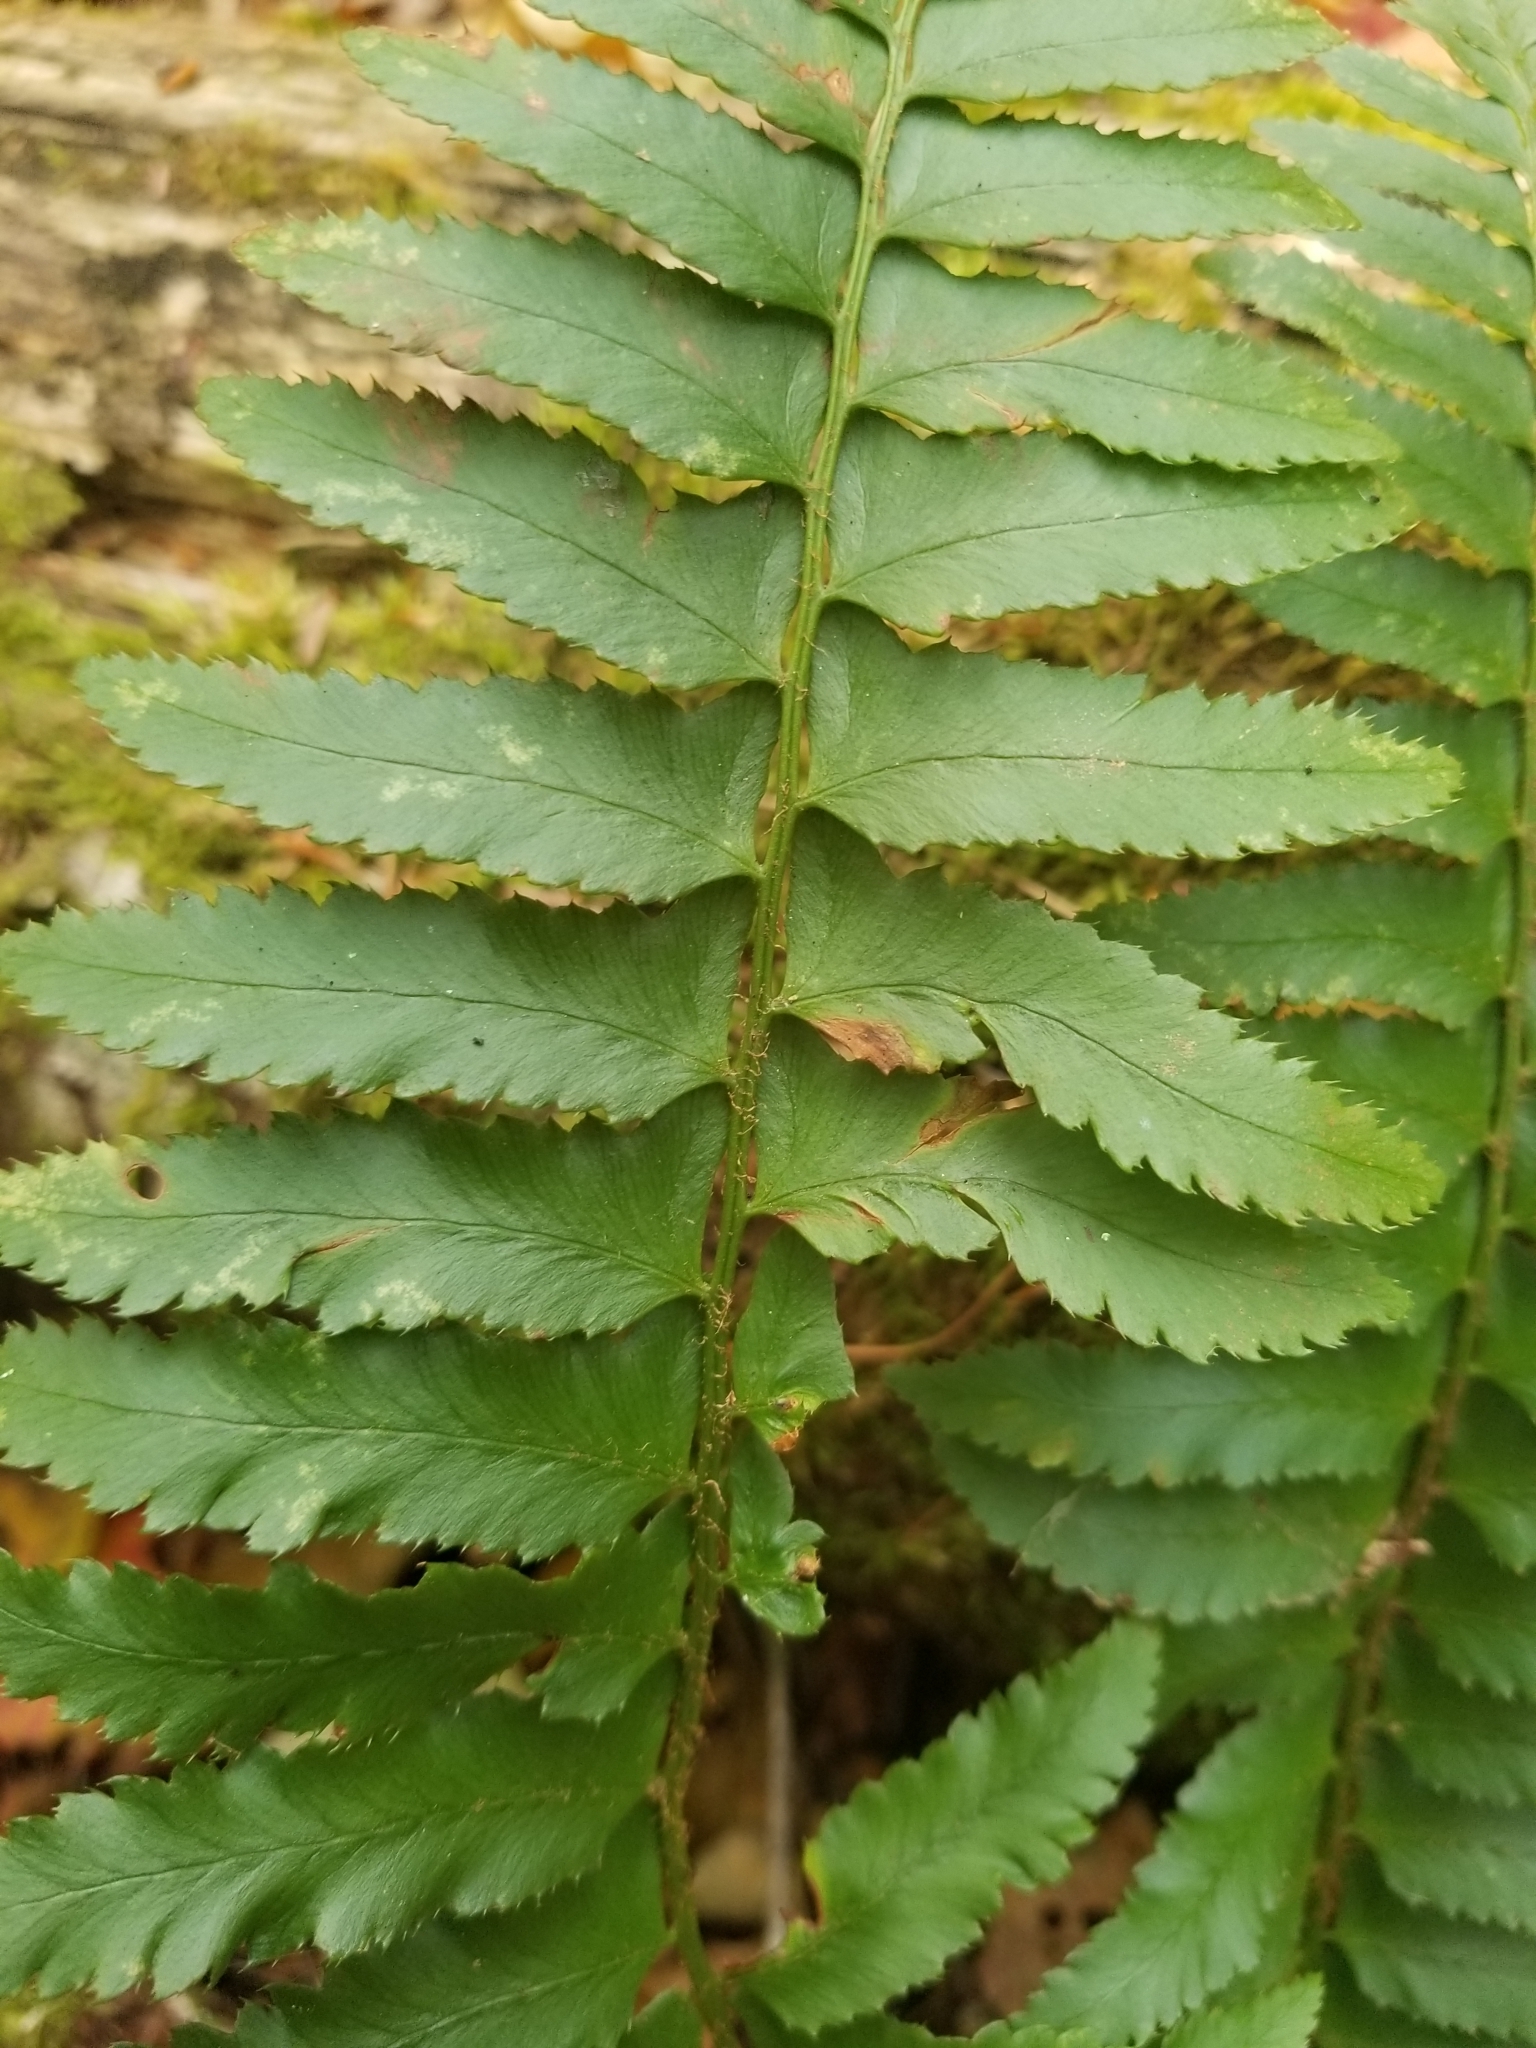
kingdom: Plantae
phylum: Tracheophyta
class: Polypodiopsida
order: Polypodiales
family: Dryopteridaceae
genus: Polystichum
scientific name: Polystichum acrostichoides
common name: Christmas fern
